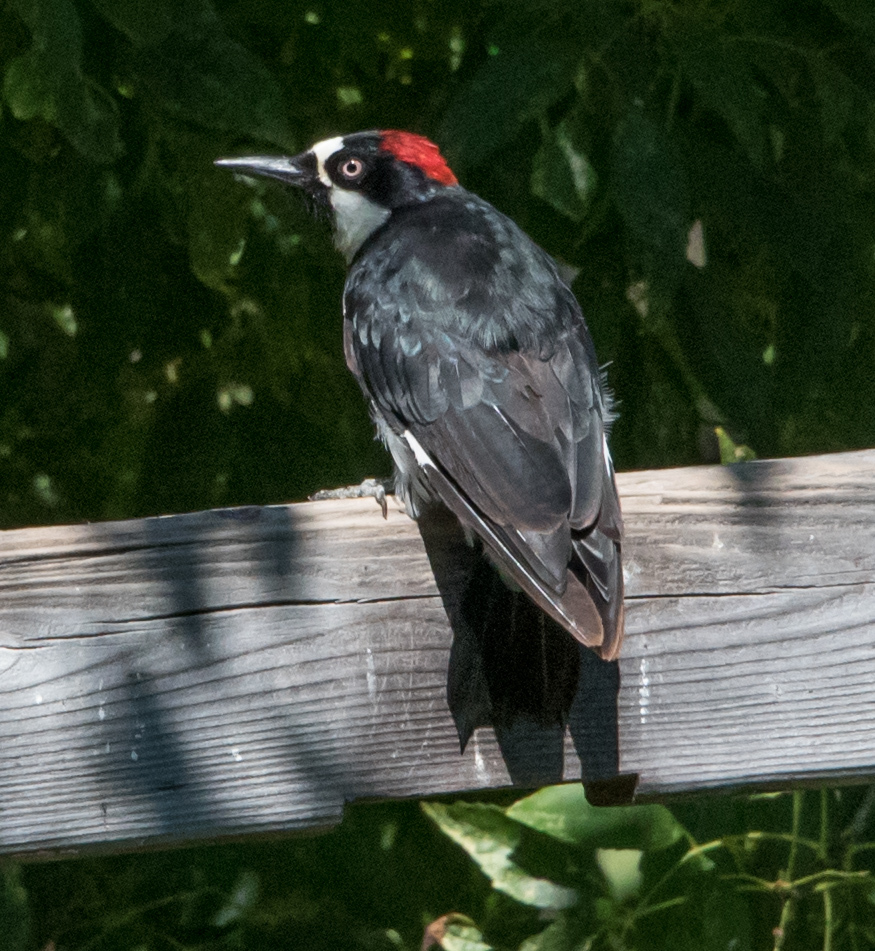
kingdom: Animalia
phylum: Chordata
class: Aves
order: Piciformes
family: Picidae
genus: Melanerpes
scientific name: Melanerpes formicivorus
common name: Acorn woodpecker
